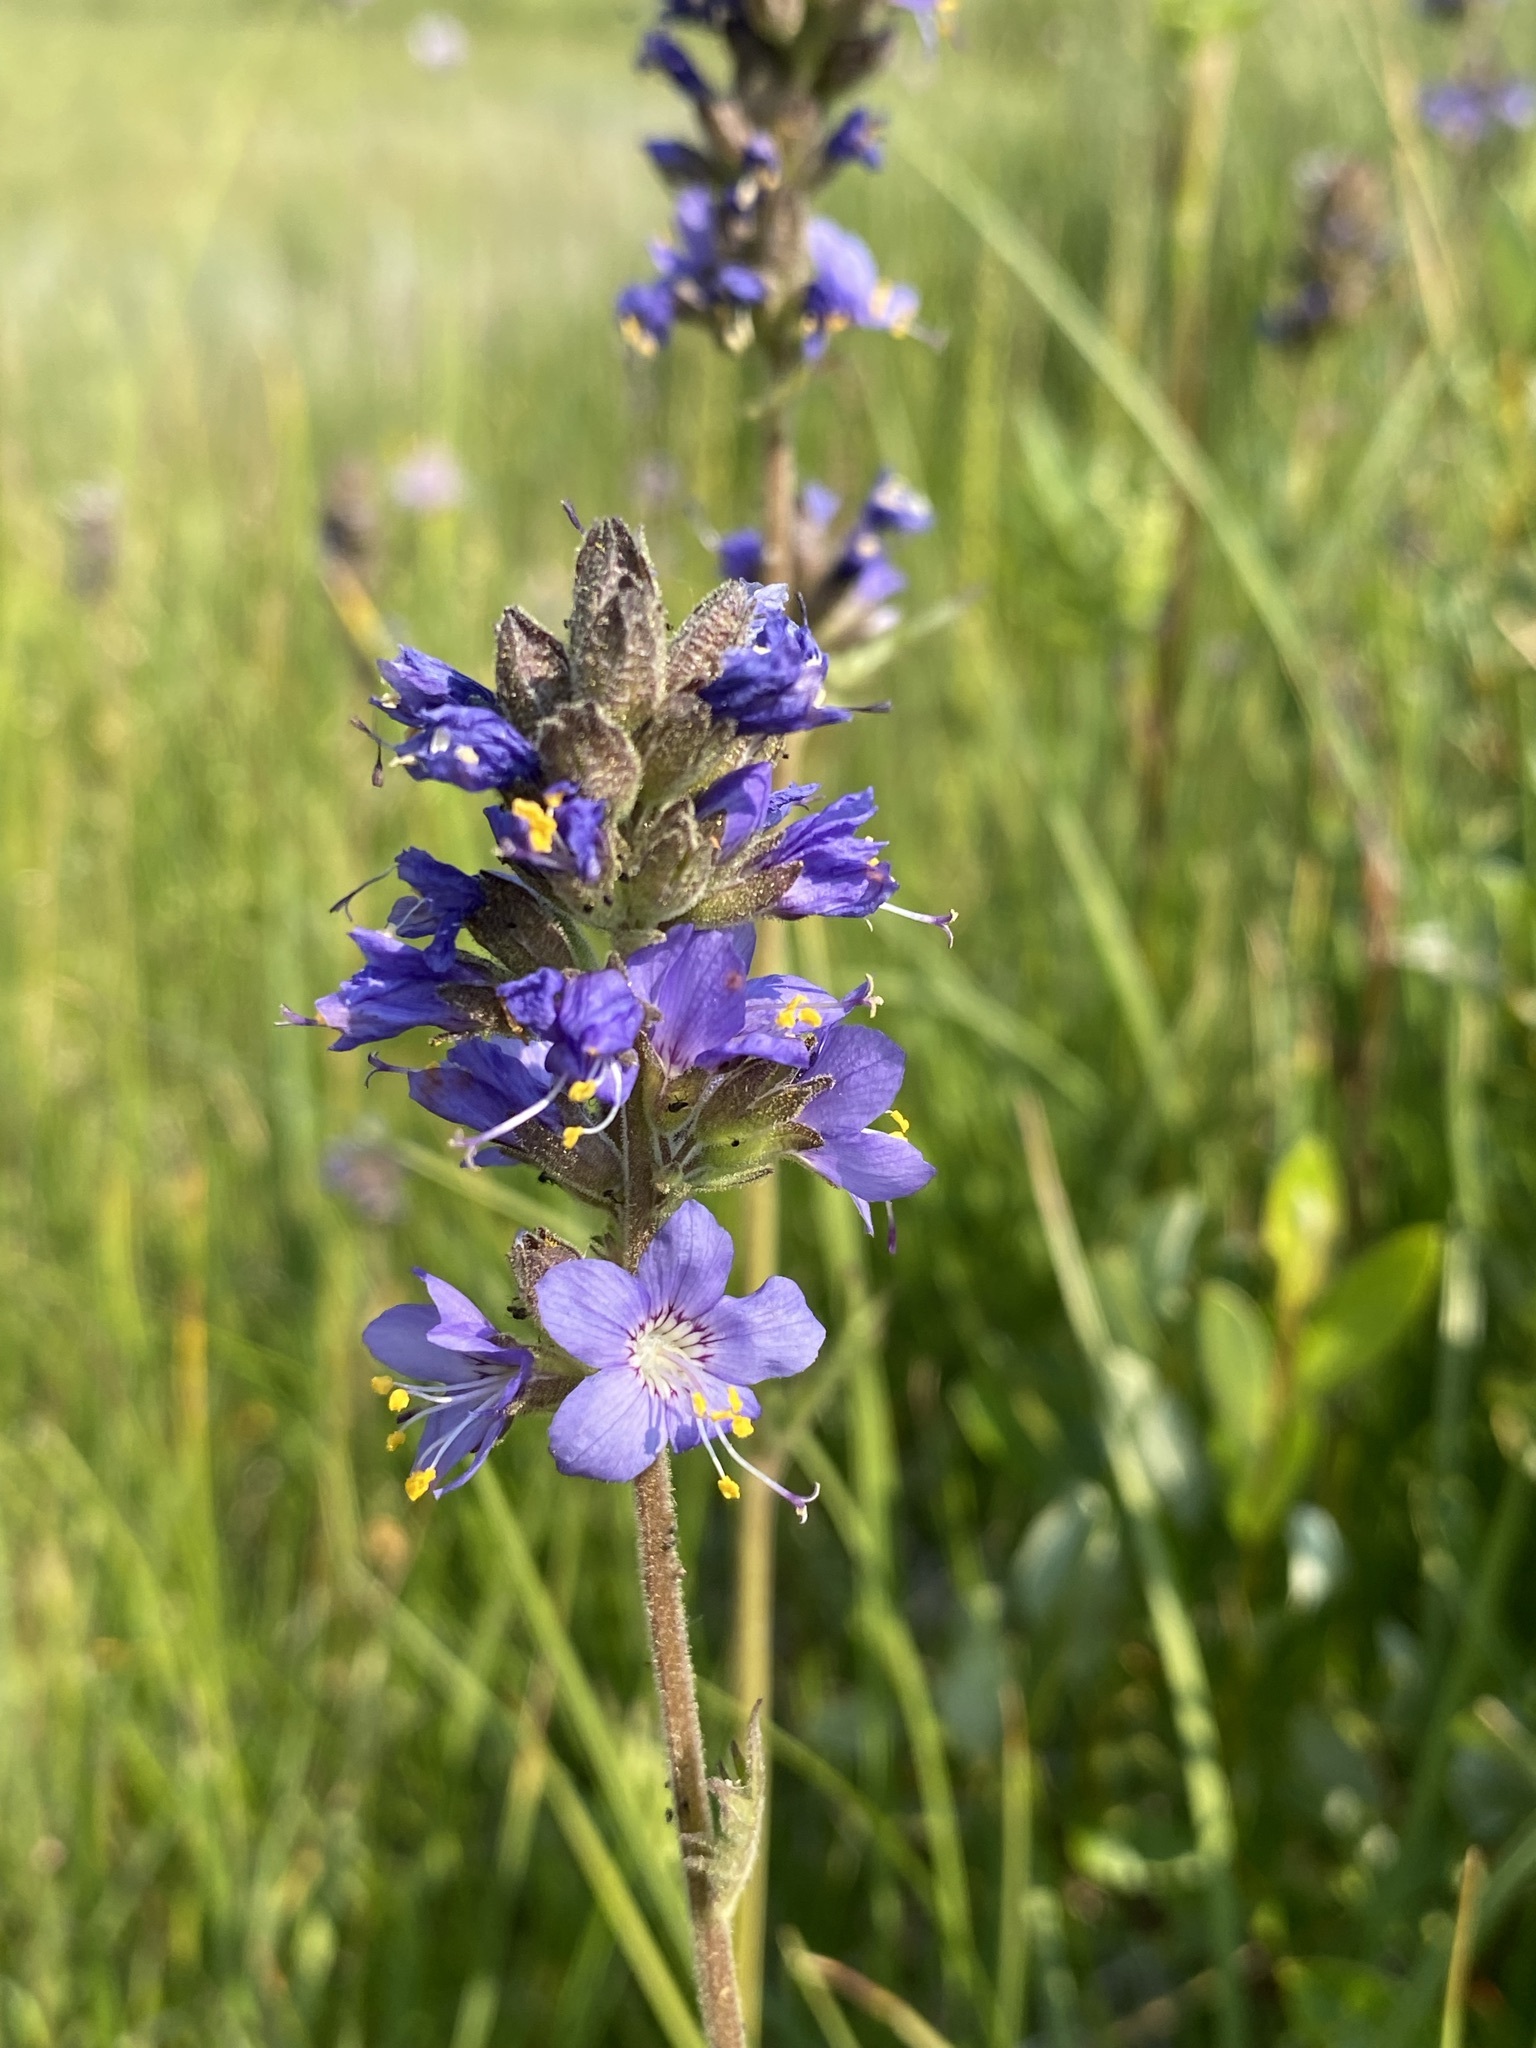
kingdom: Plantae
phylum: Tracheophyta
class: Magnoliopsida
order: Ericales
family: Polemoniaceae
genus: Polemonium
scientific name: Polemonium occidentale
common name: Western jacob's-ladder
